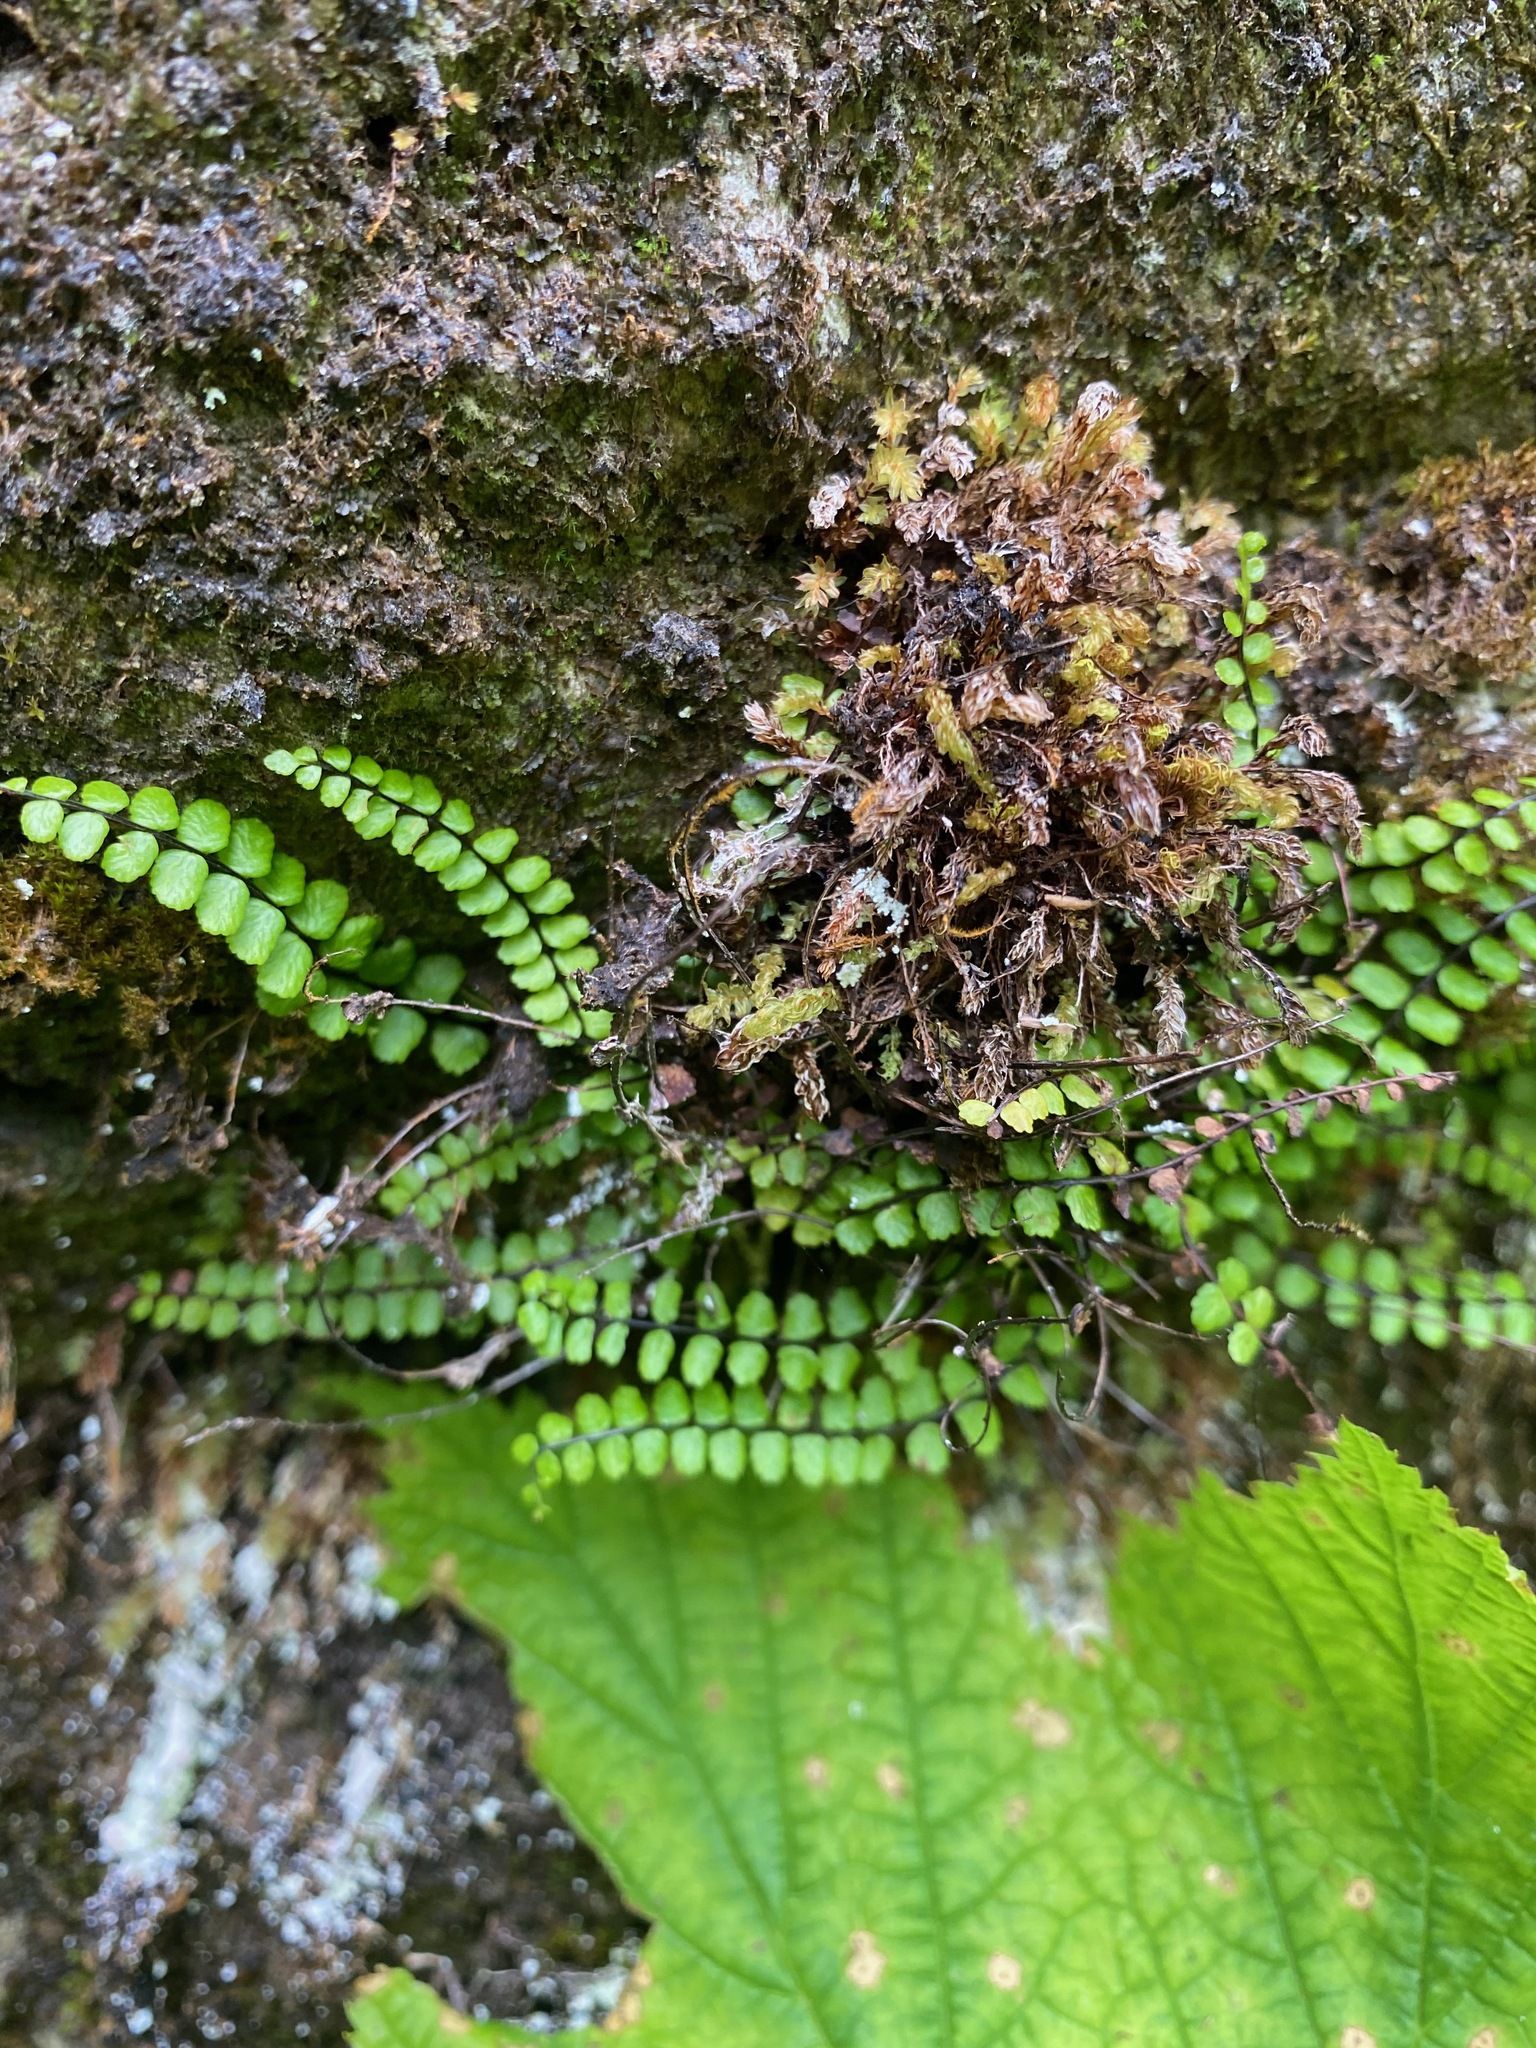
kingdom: Plantae
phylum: Tracheophyta
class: Polypodiopsida
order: Polypodiales
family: Aspleniaceae
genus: Asplenium
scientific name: Asplenium trichomanes
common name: Maidenhair spleenwort
